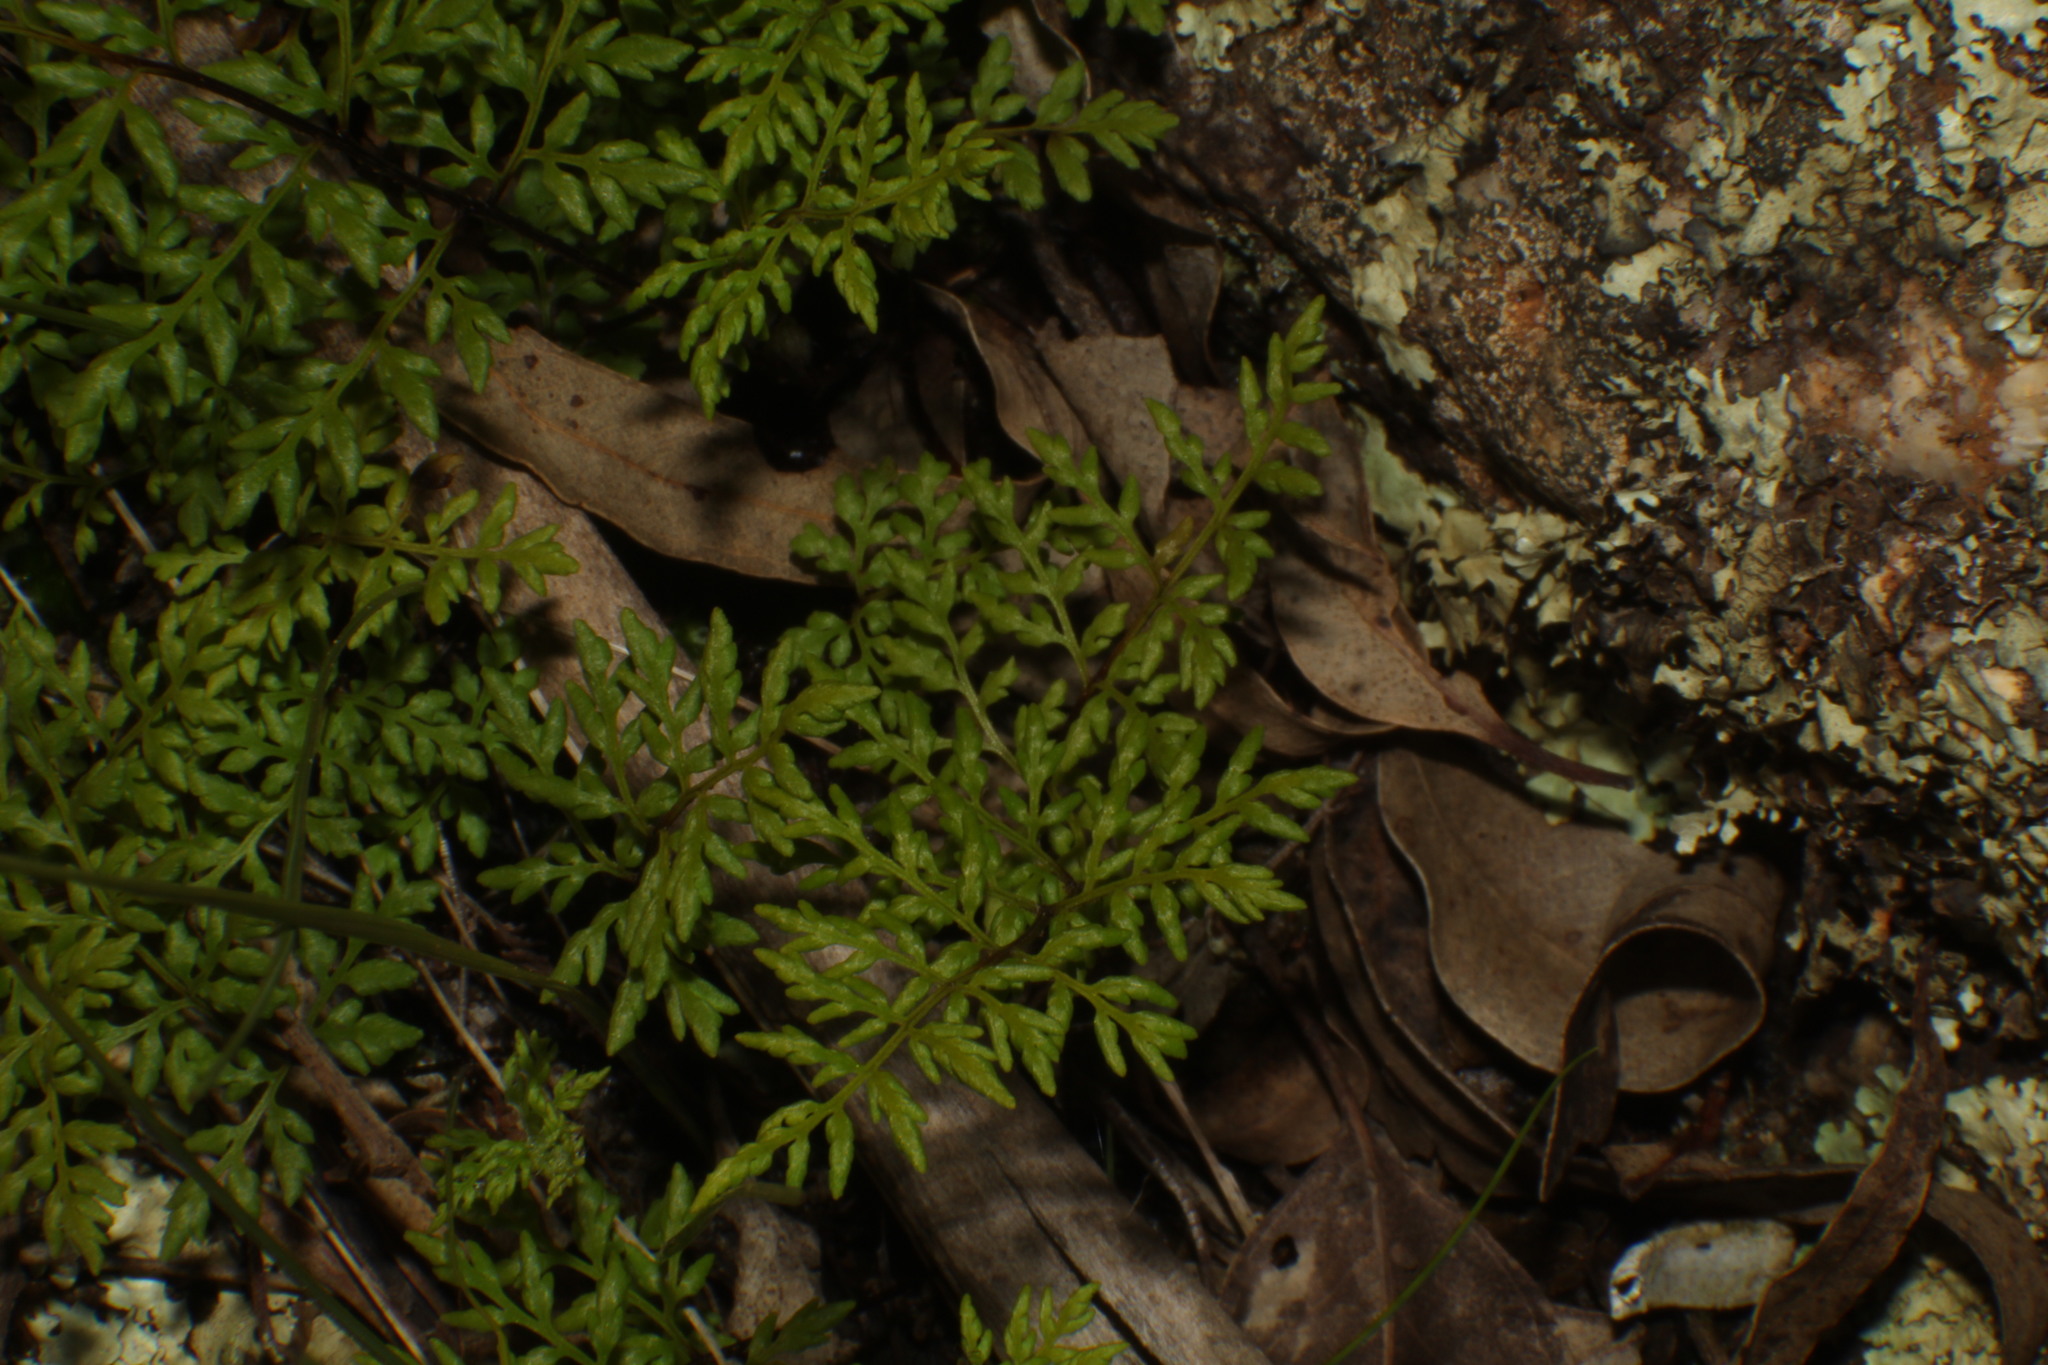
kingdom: Plantae
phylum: Tracheophyta
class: Polypodiopsida
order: Polypodiales
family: Pteridaceae
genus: Cheilanthes
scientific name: Cheilanthes austrotenuifolia
